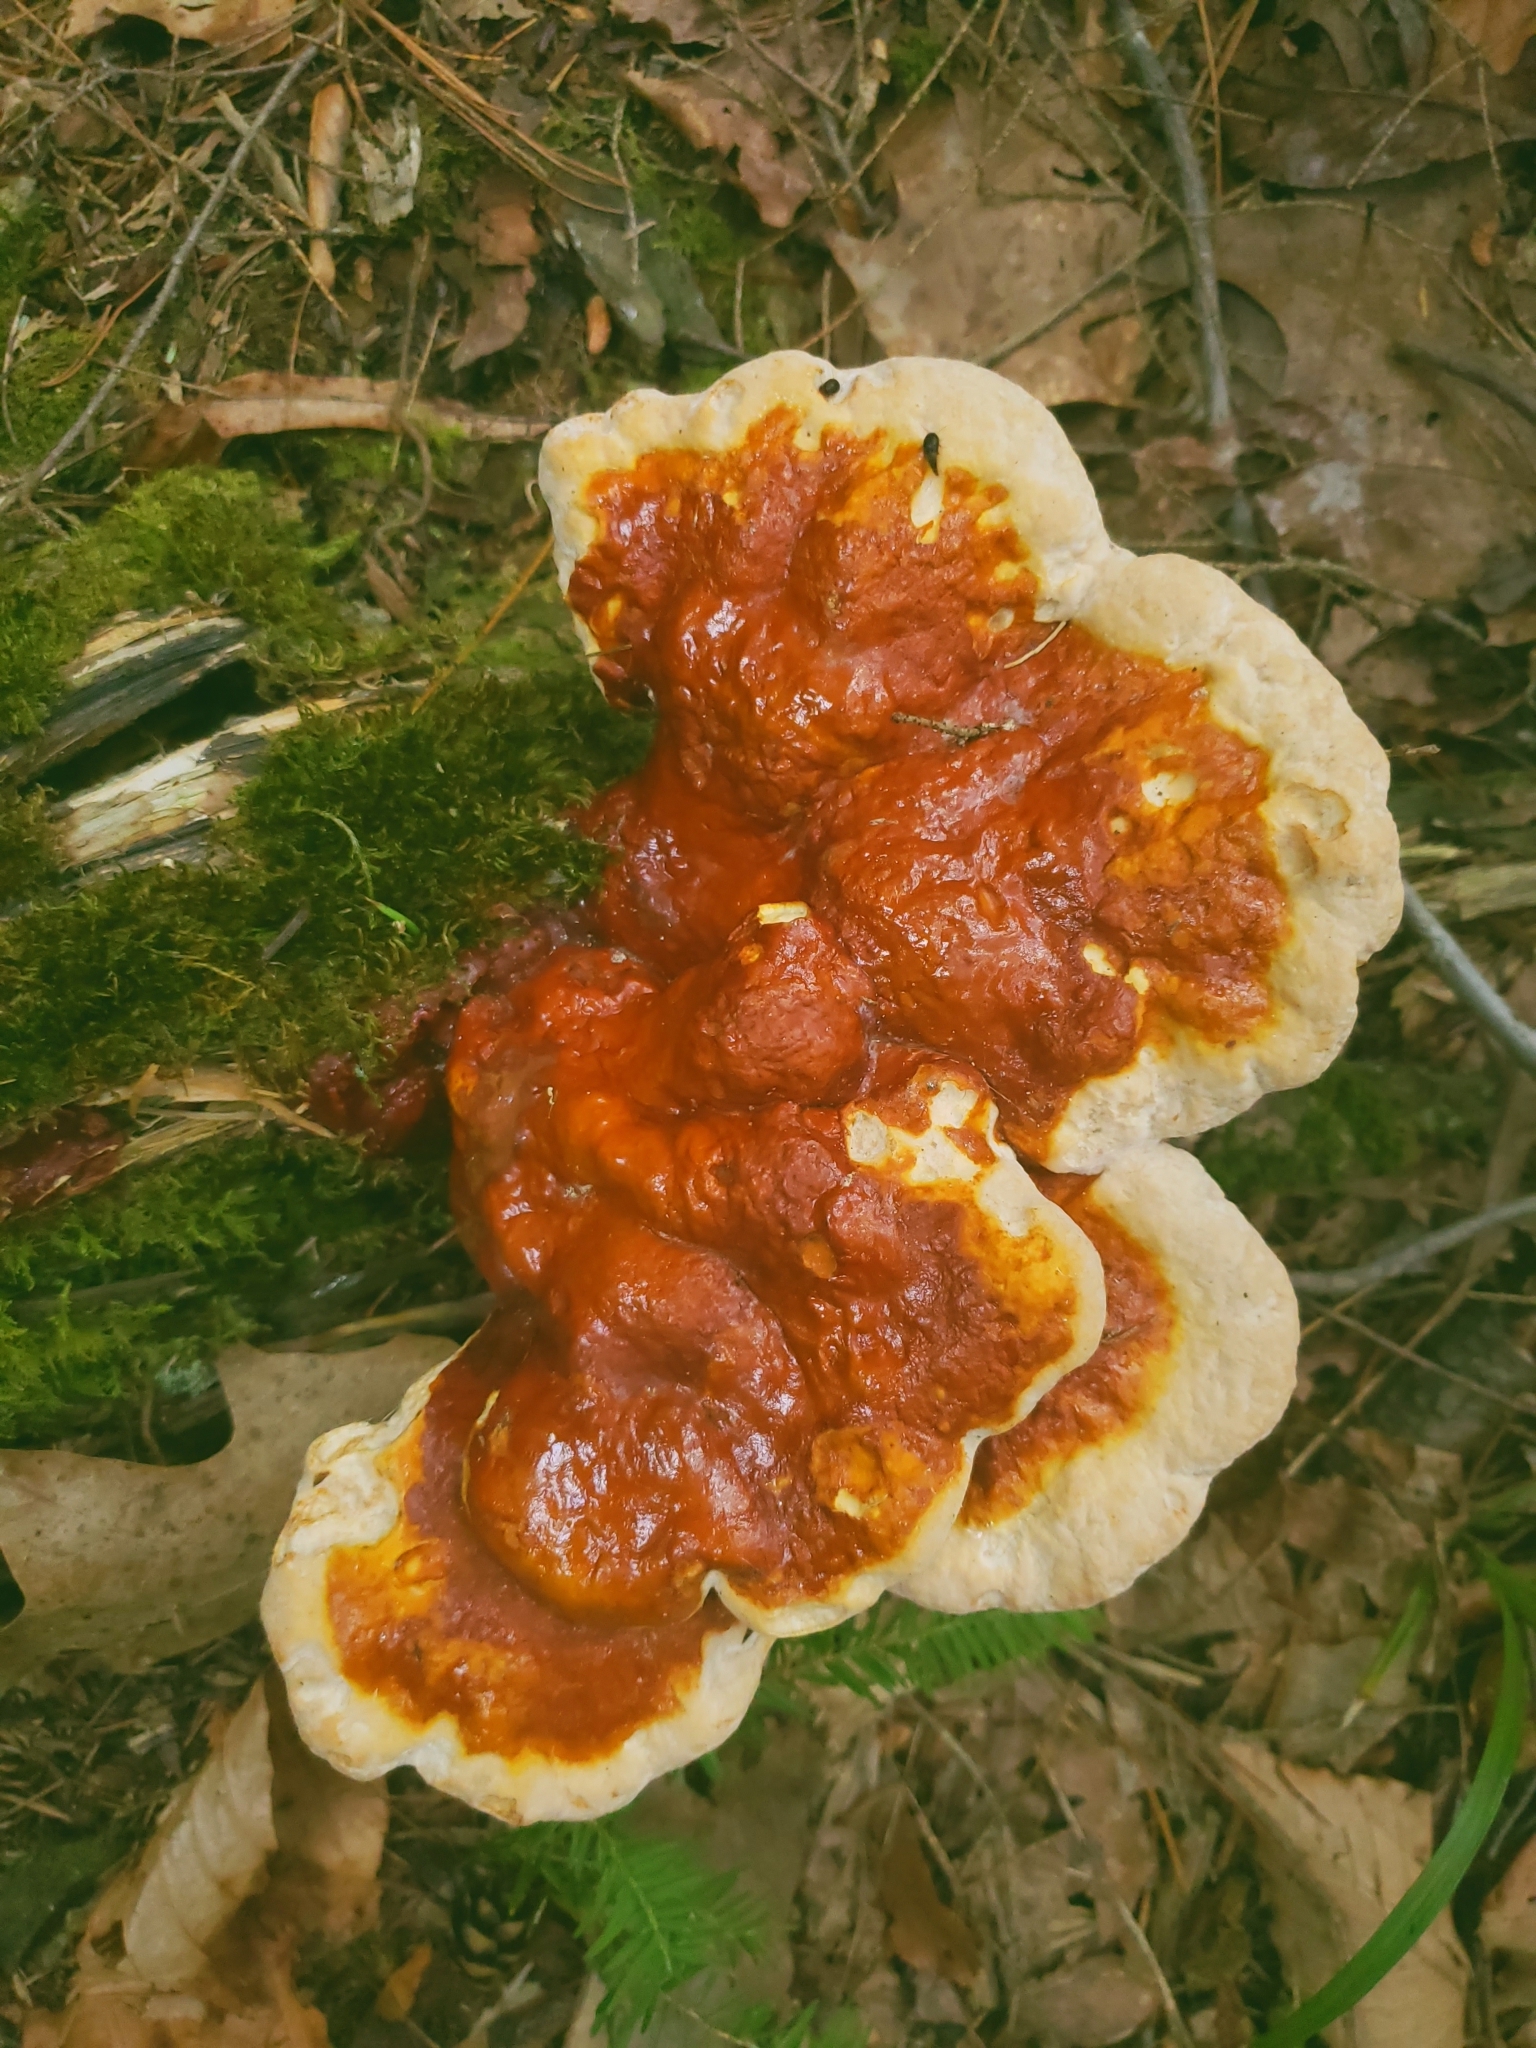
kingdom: Fungi
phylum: Basidiomycota
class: Agaricomycetes
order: Polyporales
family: Polyporaceae
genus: Ganoderma
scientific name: Ganoderma tsugae
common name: Hemlock varnish shelf
